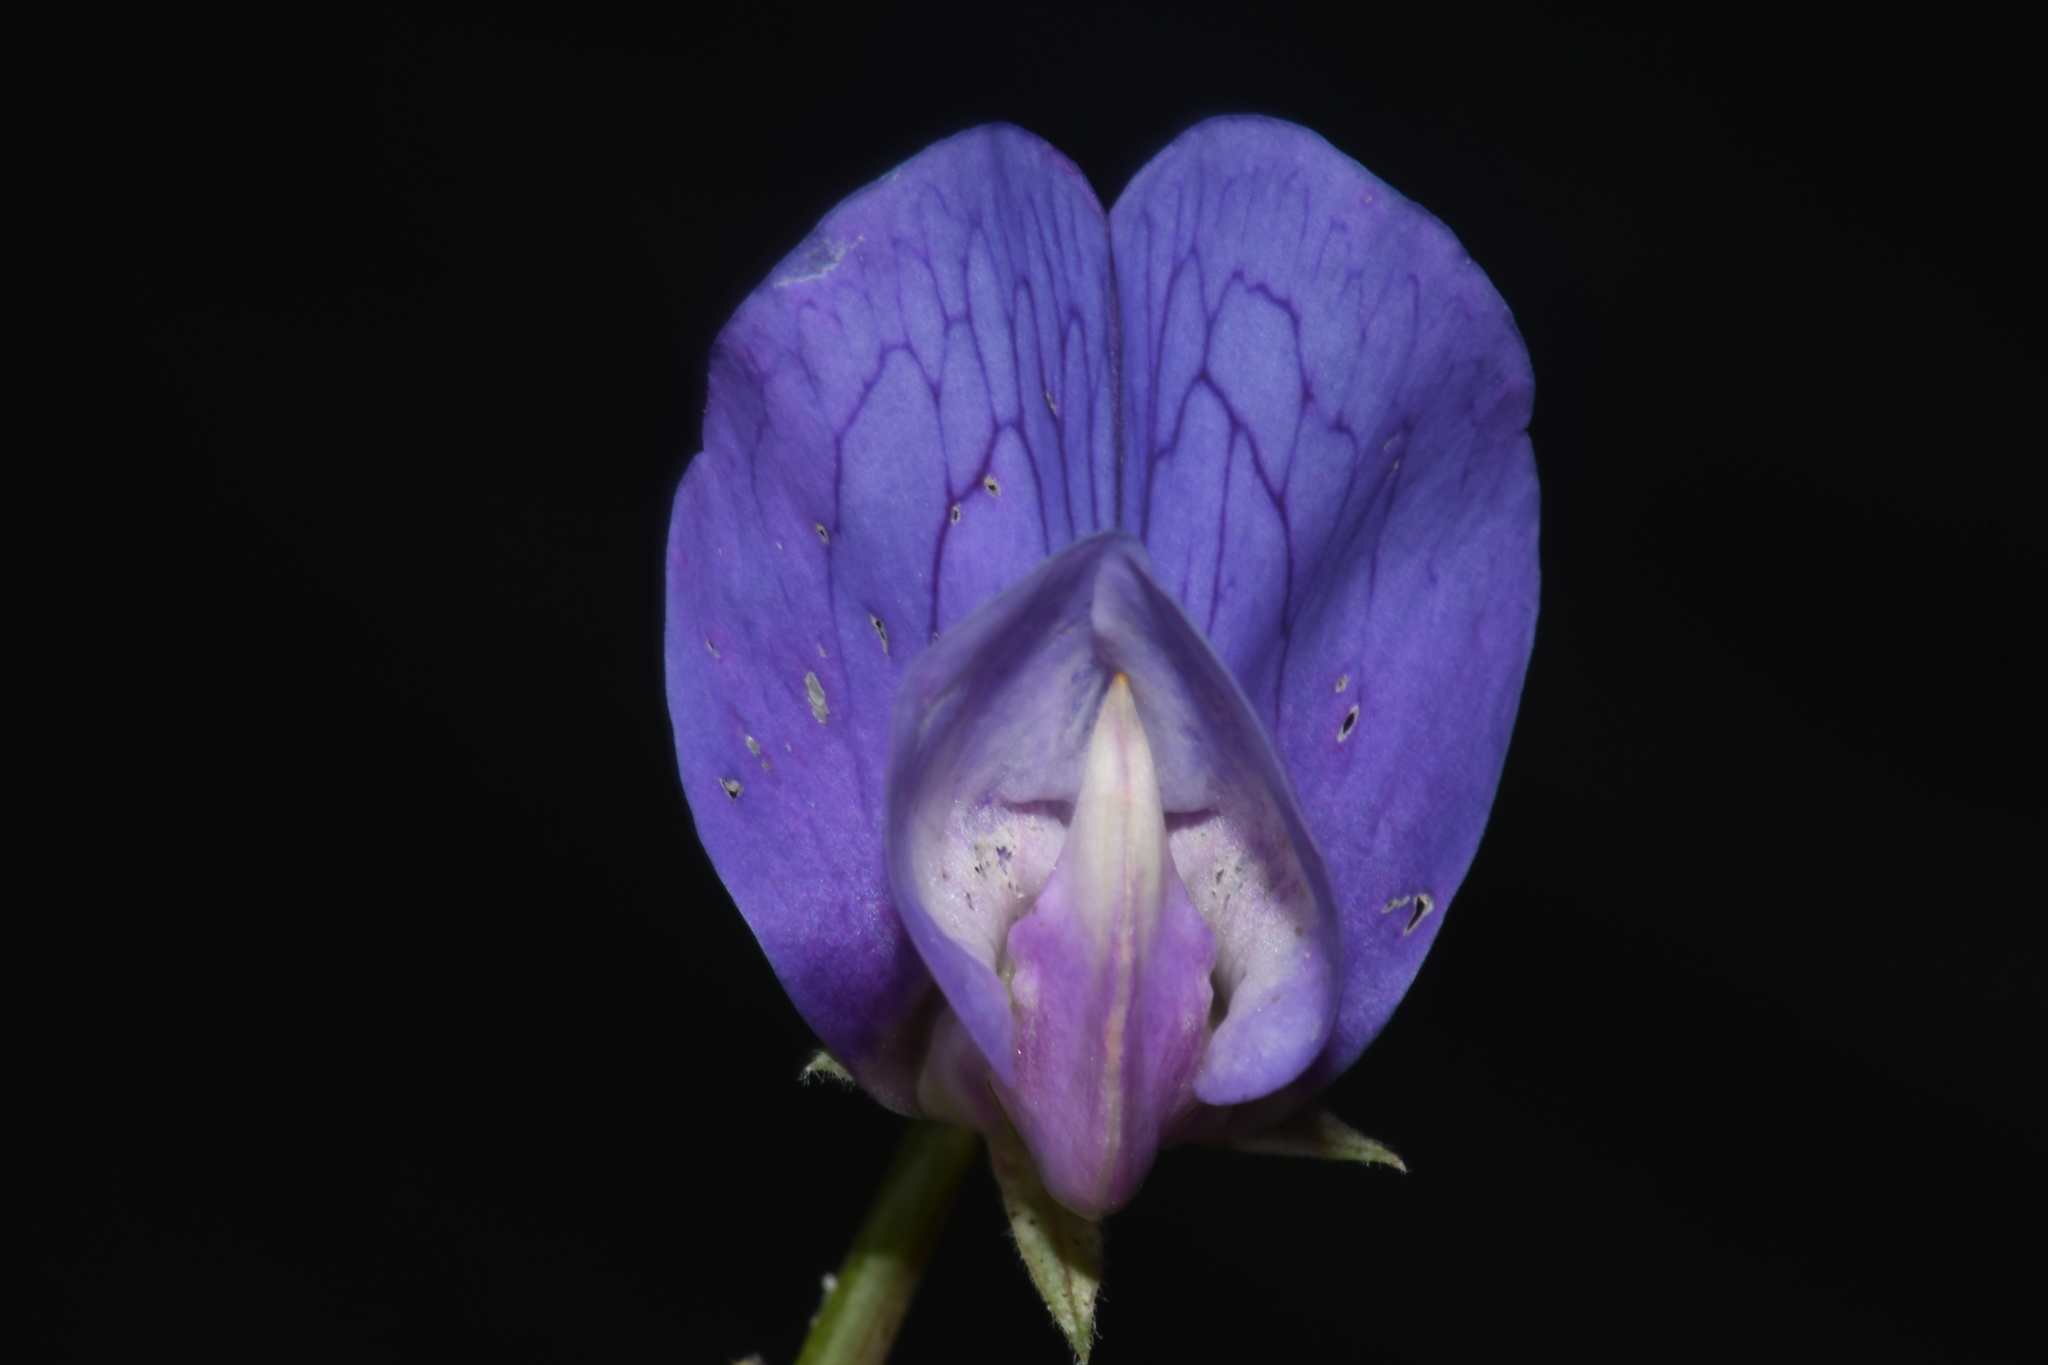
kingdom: Plantae
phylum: Tracheophyta
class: Magnoliopsida
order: Fabales
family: Fabaceae
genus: Lathyrus
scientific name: Lathyrus japonicus
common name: Sea pea
